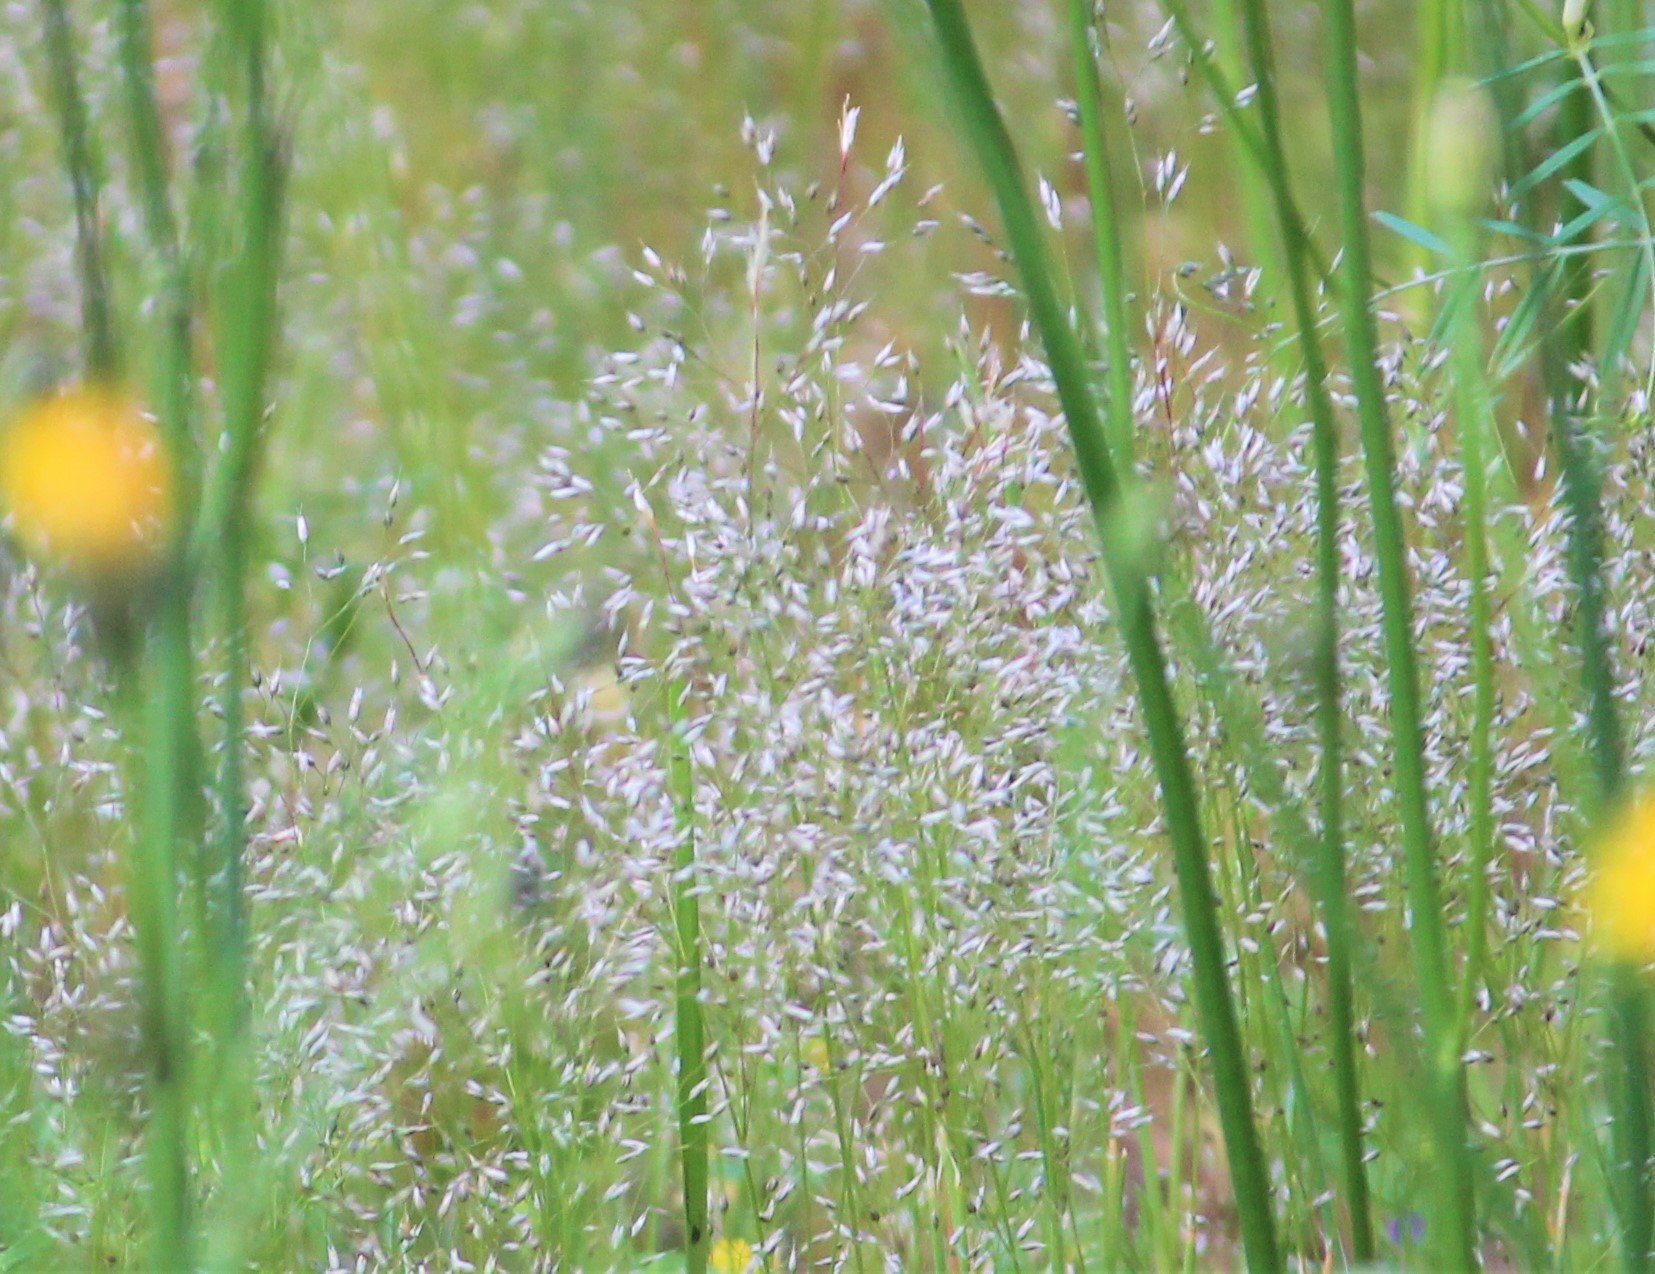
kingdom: Plantae
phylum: Tracheophyta
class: Liliopsida
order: Poales
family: Poaceae
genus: Aira
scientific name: Aira caryophyllea
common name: Silver hairgrass
